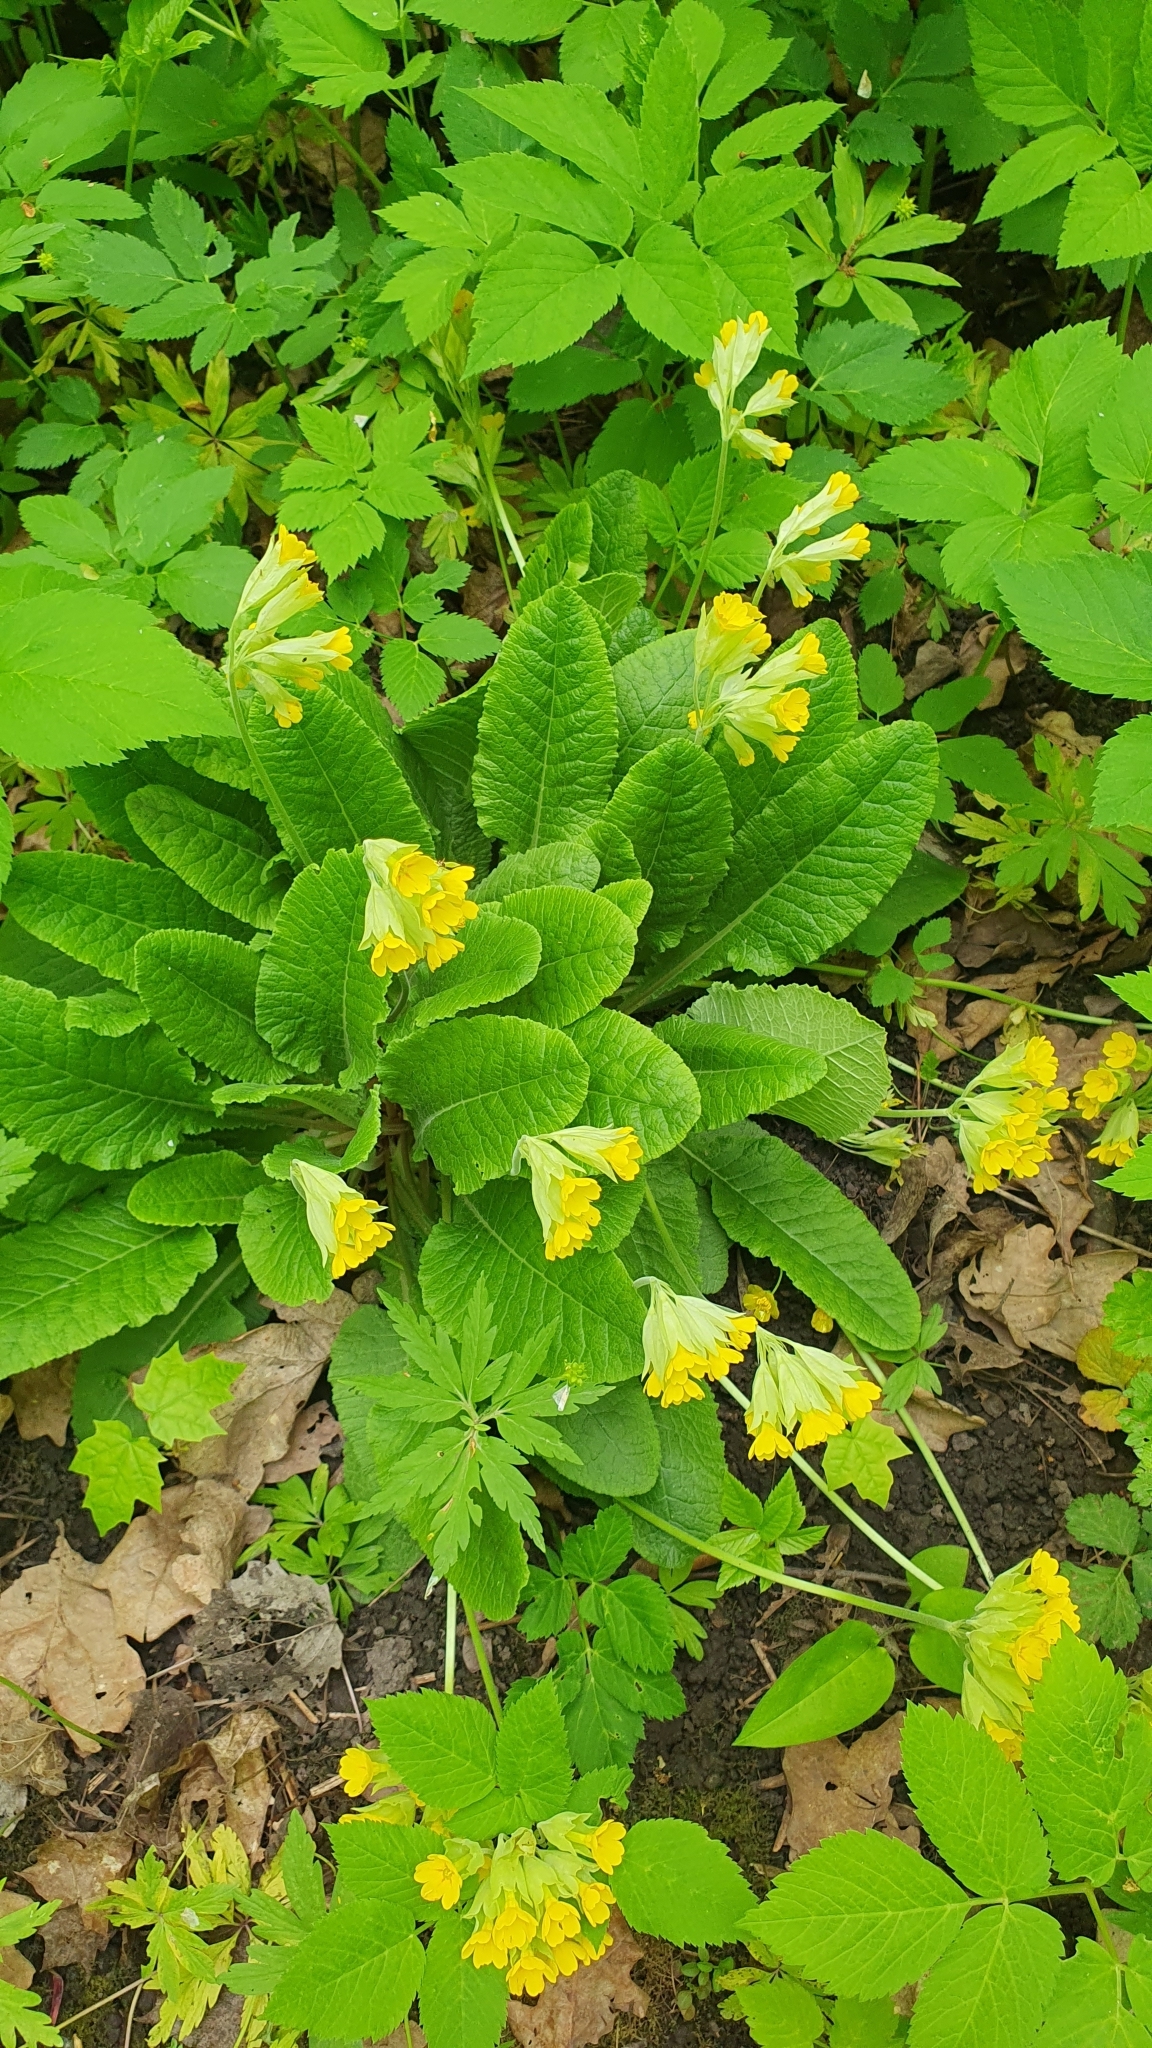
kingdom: Plantae
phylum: Tracheophyta
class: Magnoliopsida
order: Ericales
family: Primulaceae
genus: Primula
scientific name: Primula veris
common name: Cowslip
